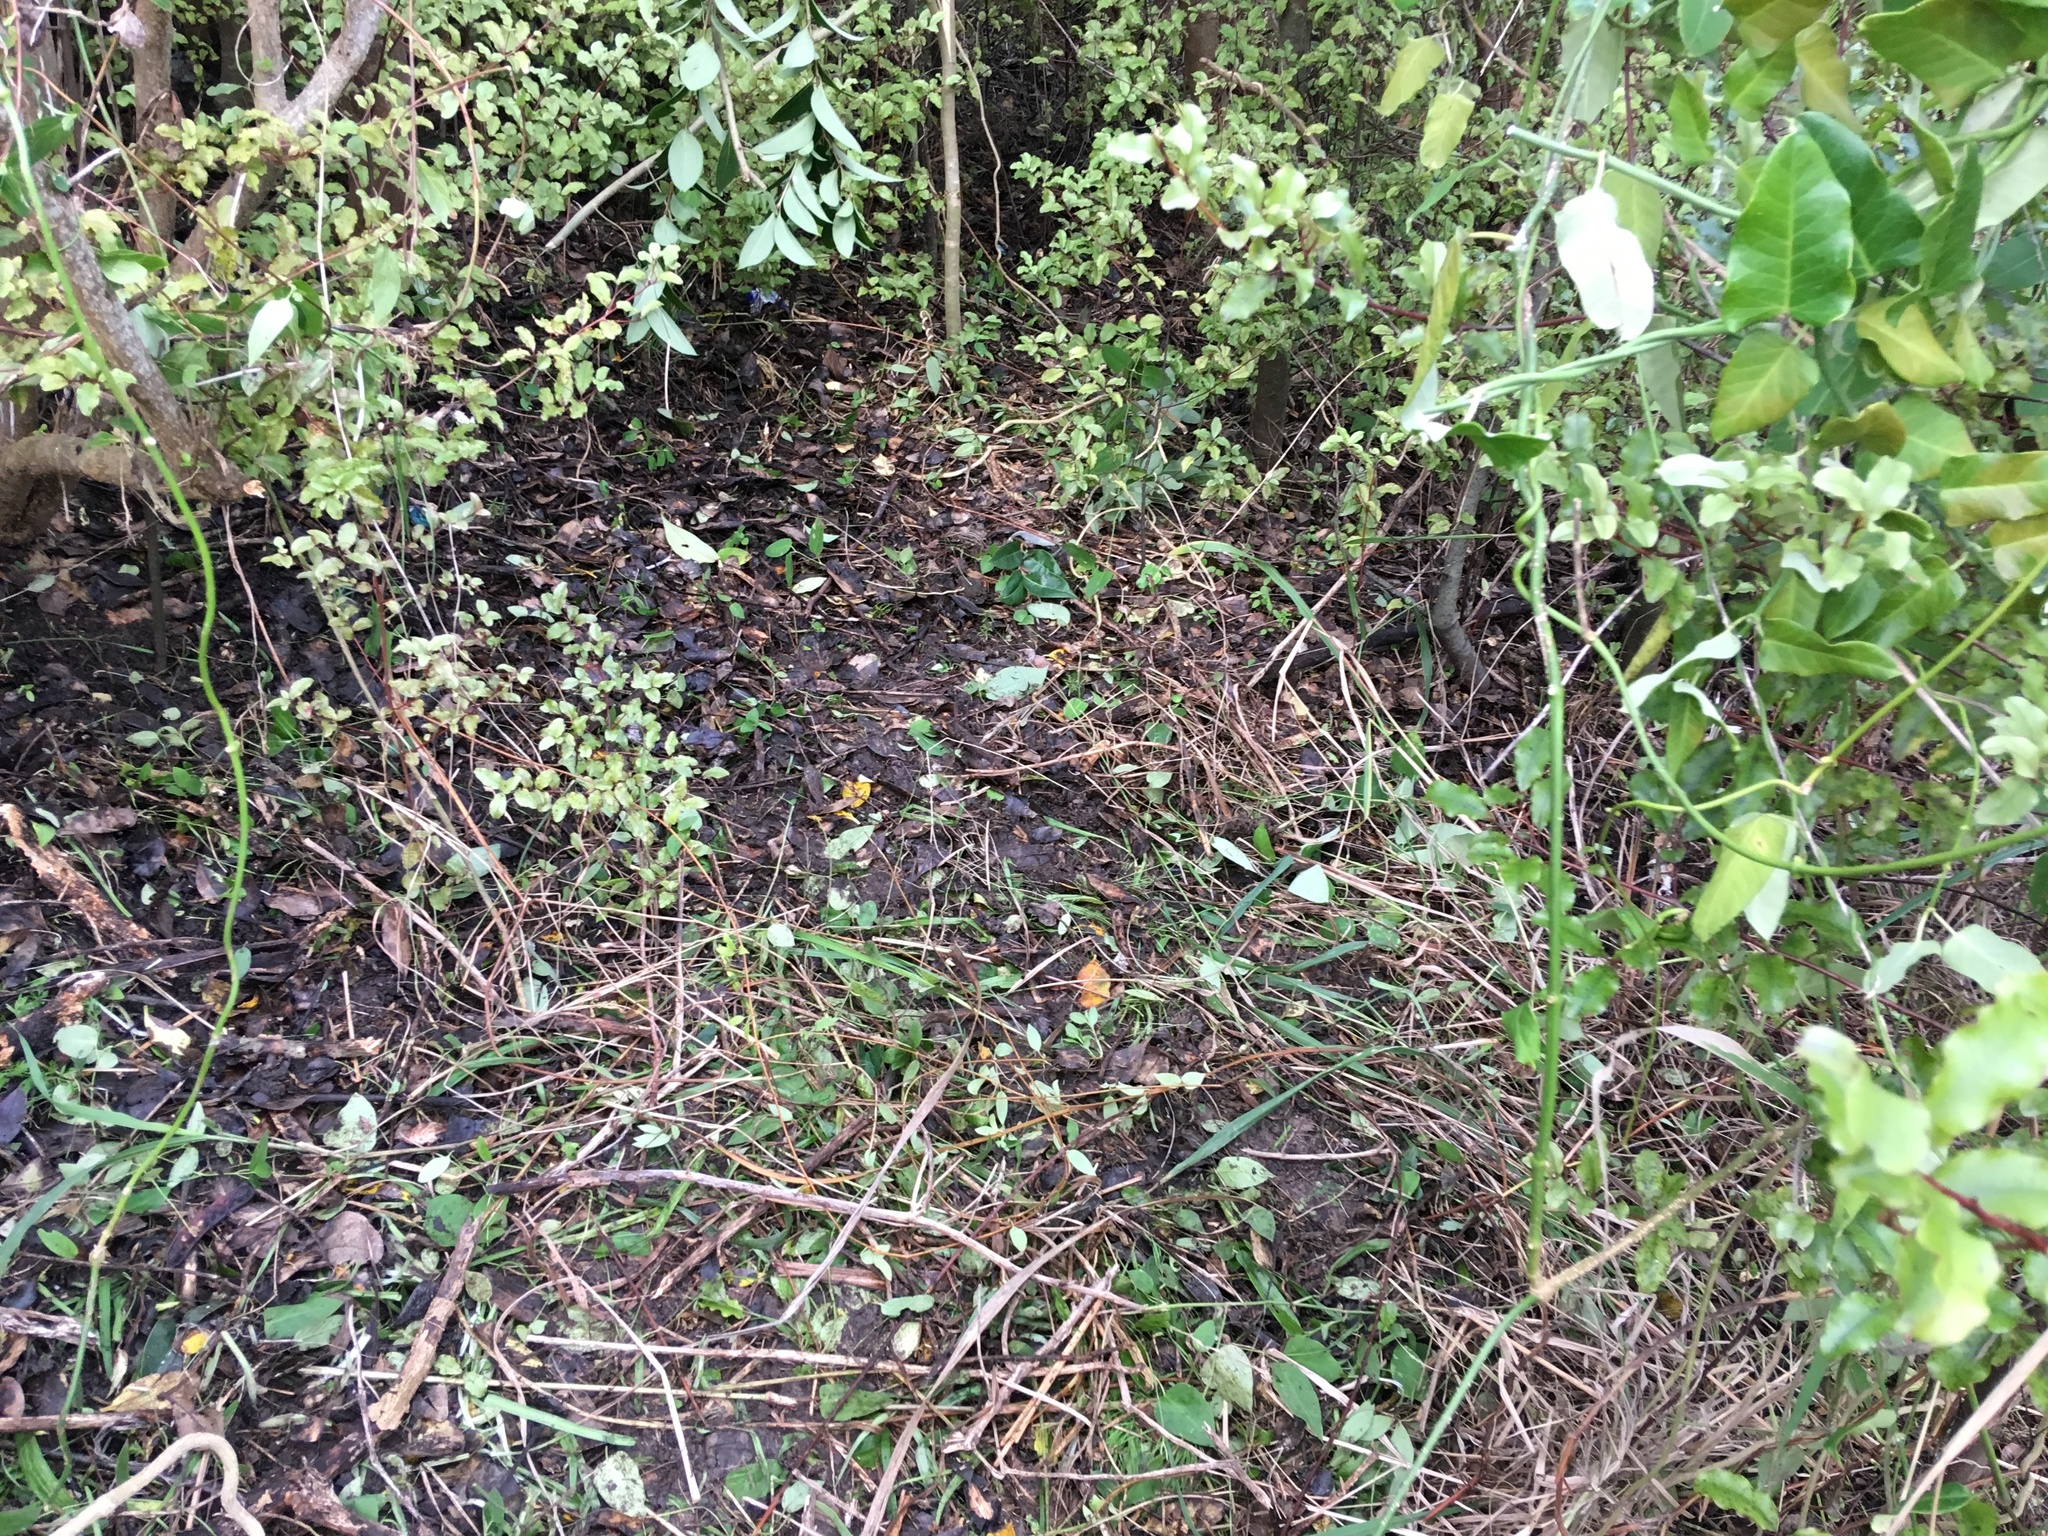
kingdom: Plantae
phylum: Tracheophyta
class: Magnoliopsida
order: Gentianales
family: Apocynaceae
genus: Araujia
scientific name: Araujia sericifera
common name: White bladderflower
